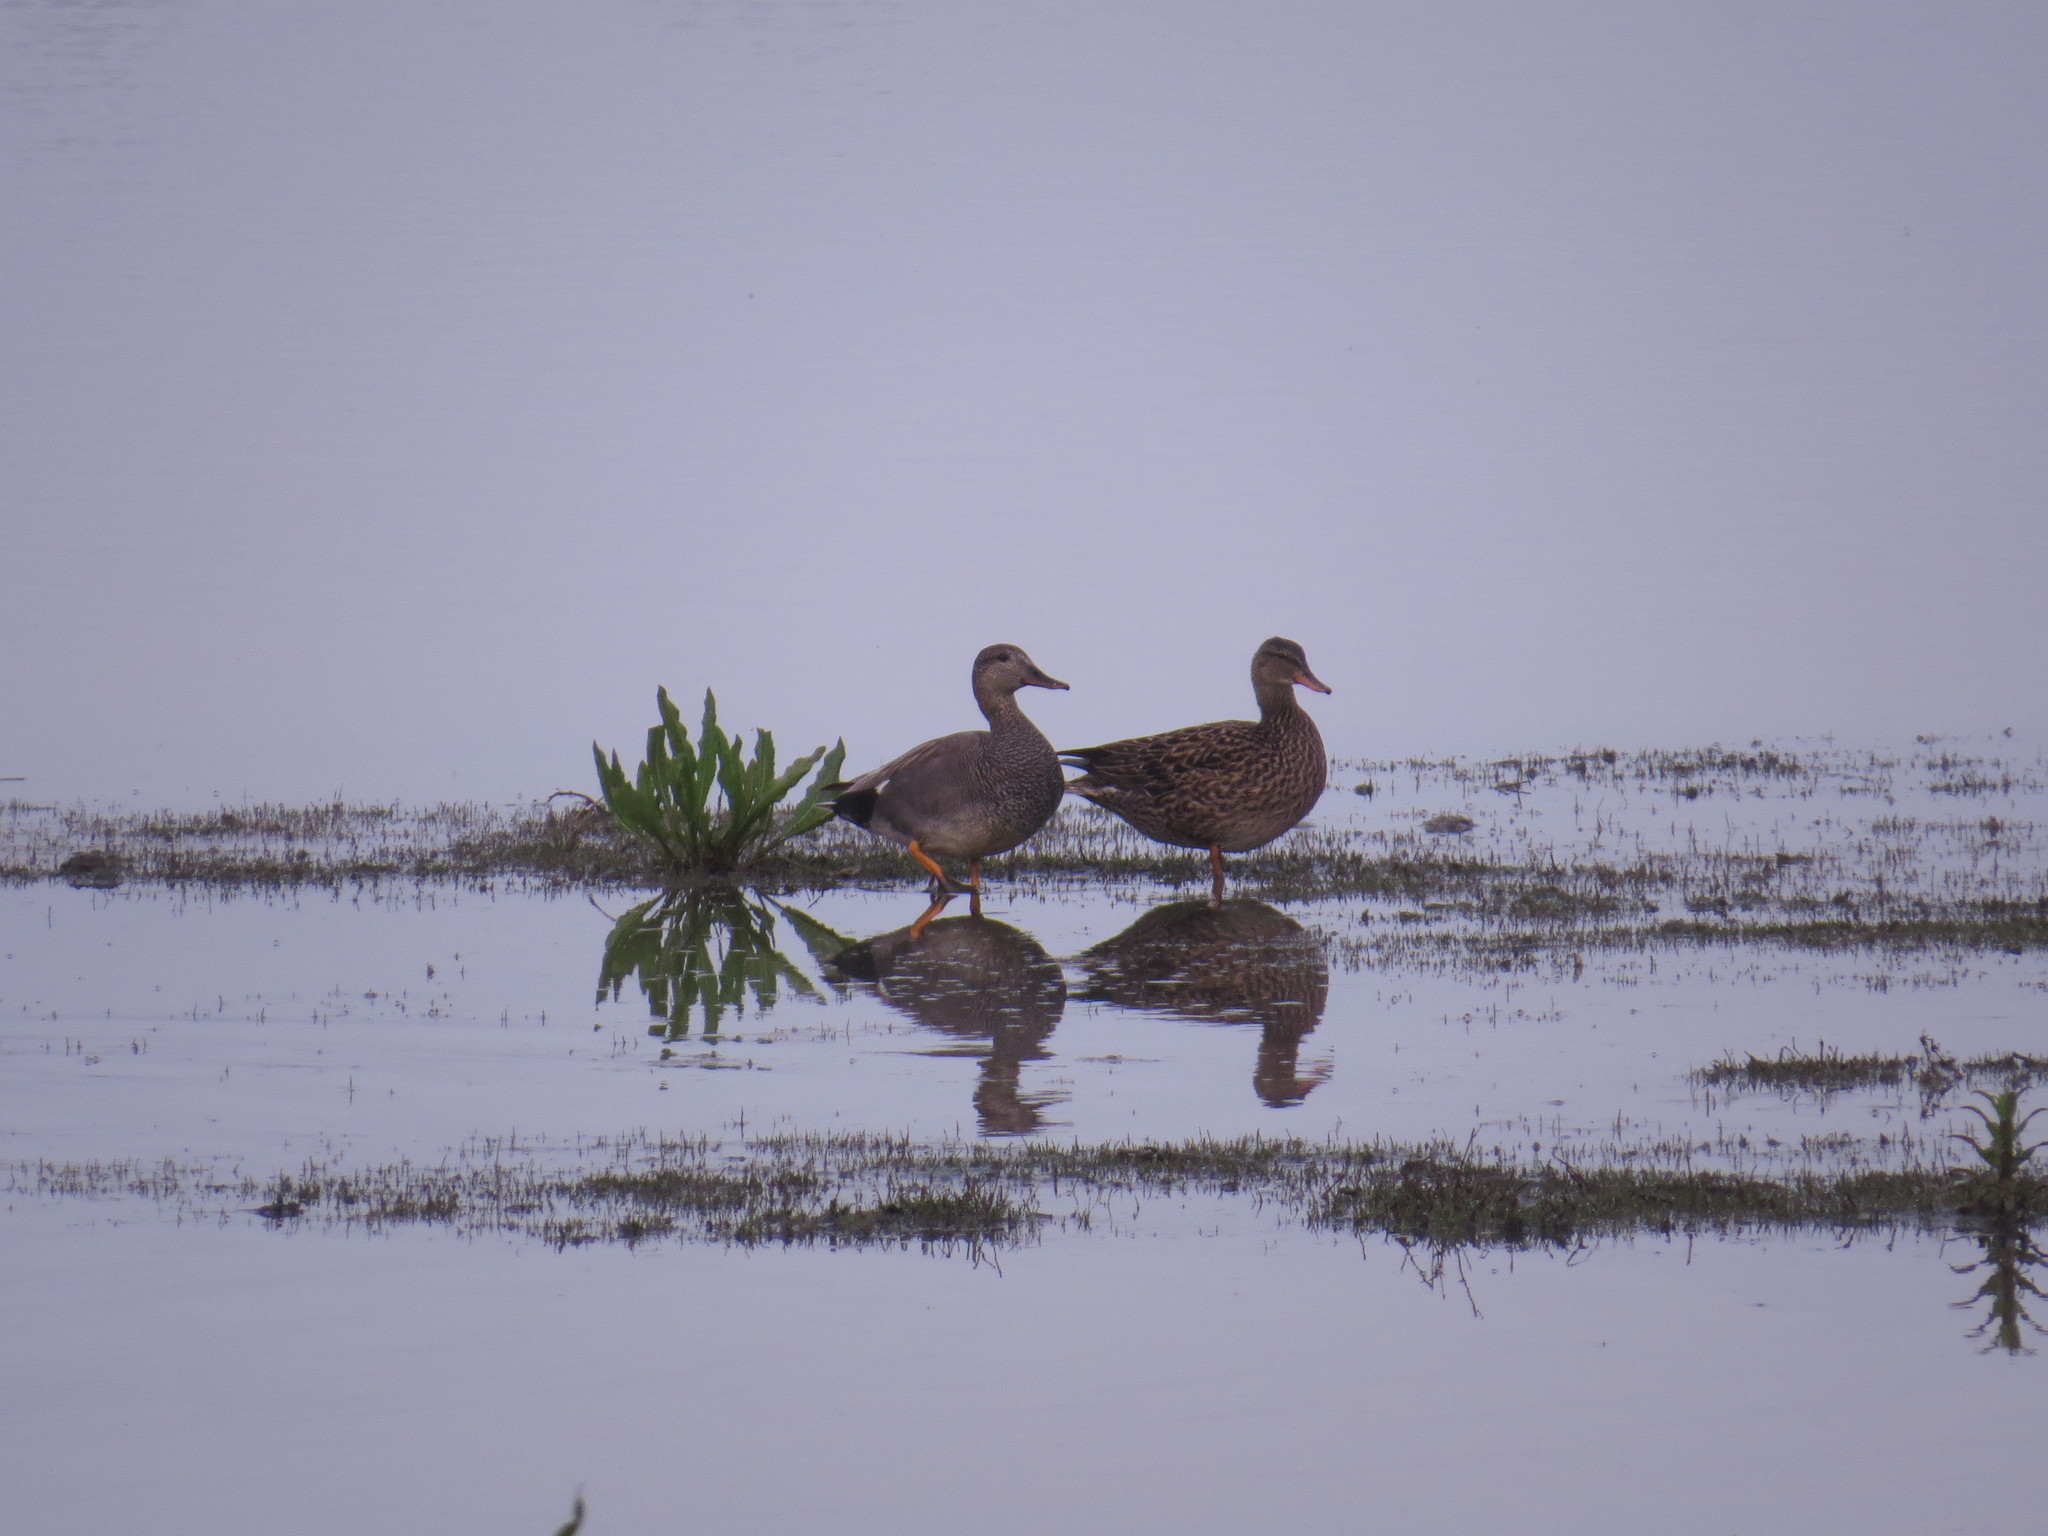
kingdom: Animalia
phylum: Chordata
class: Aves
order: Anseriformes
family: Anatidae
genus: Mareca
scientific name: Mareca strepera
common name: Gadwall
